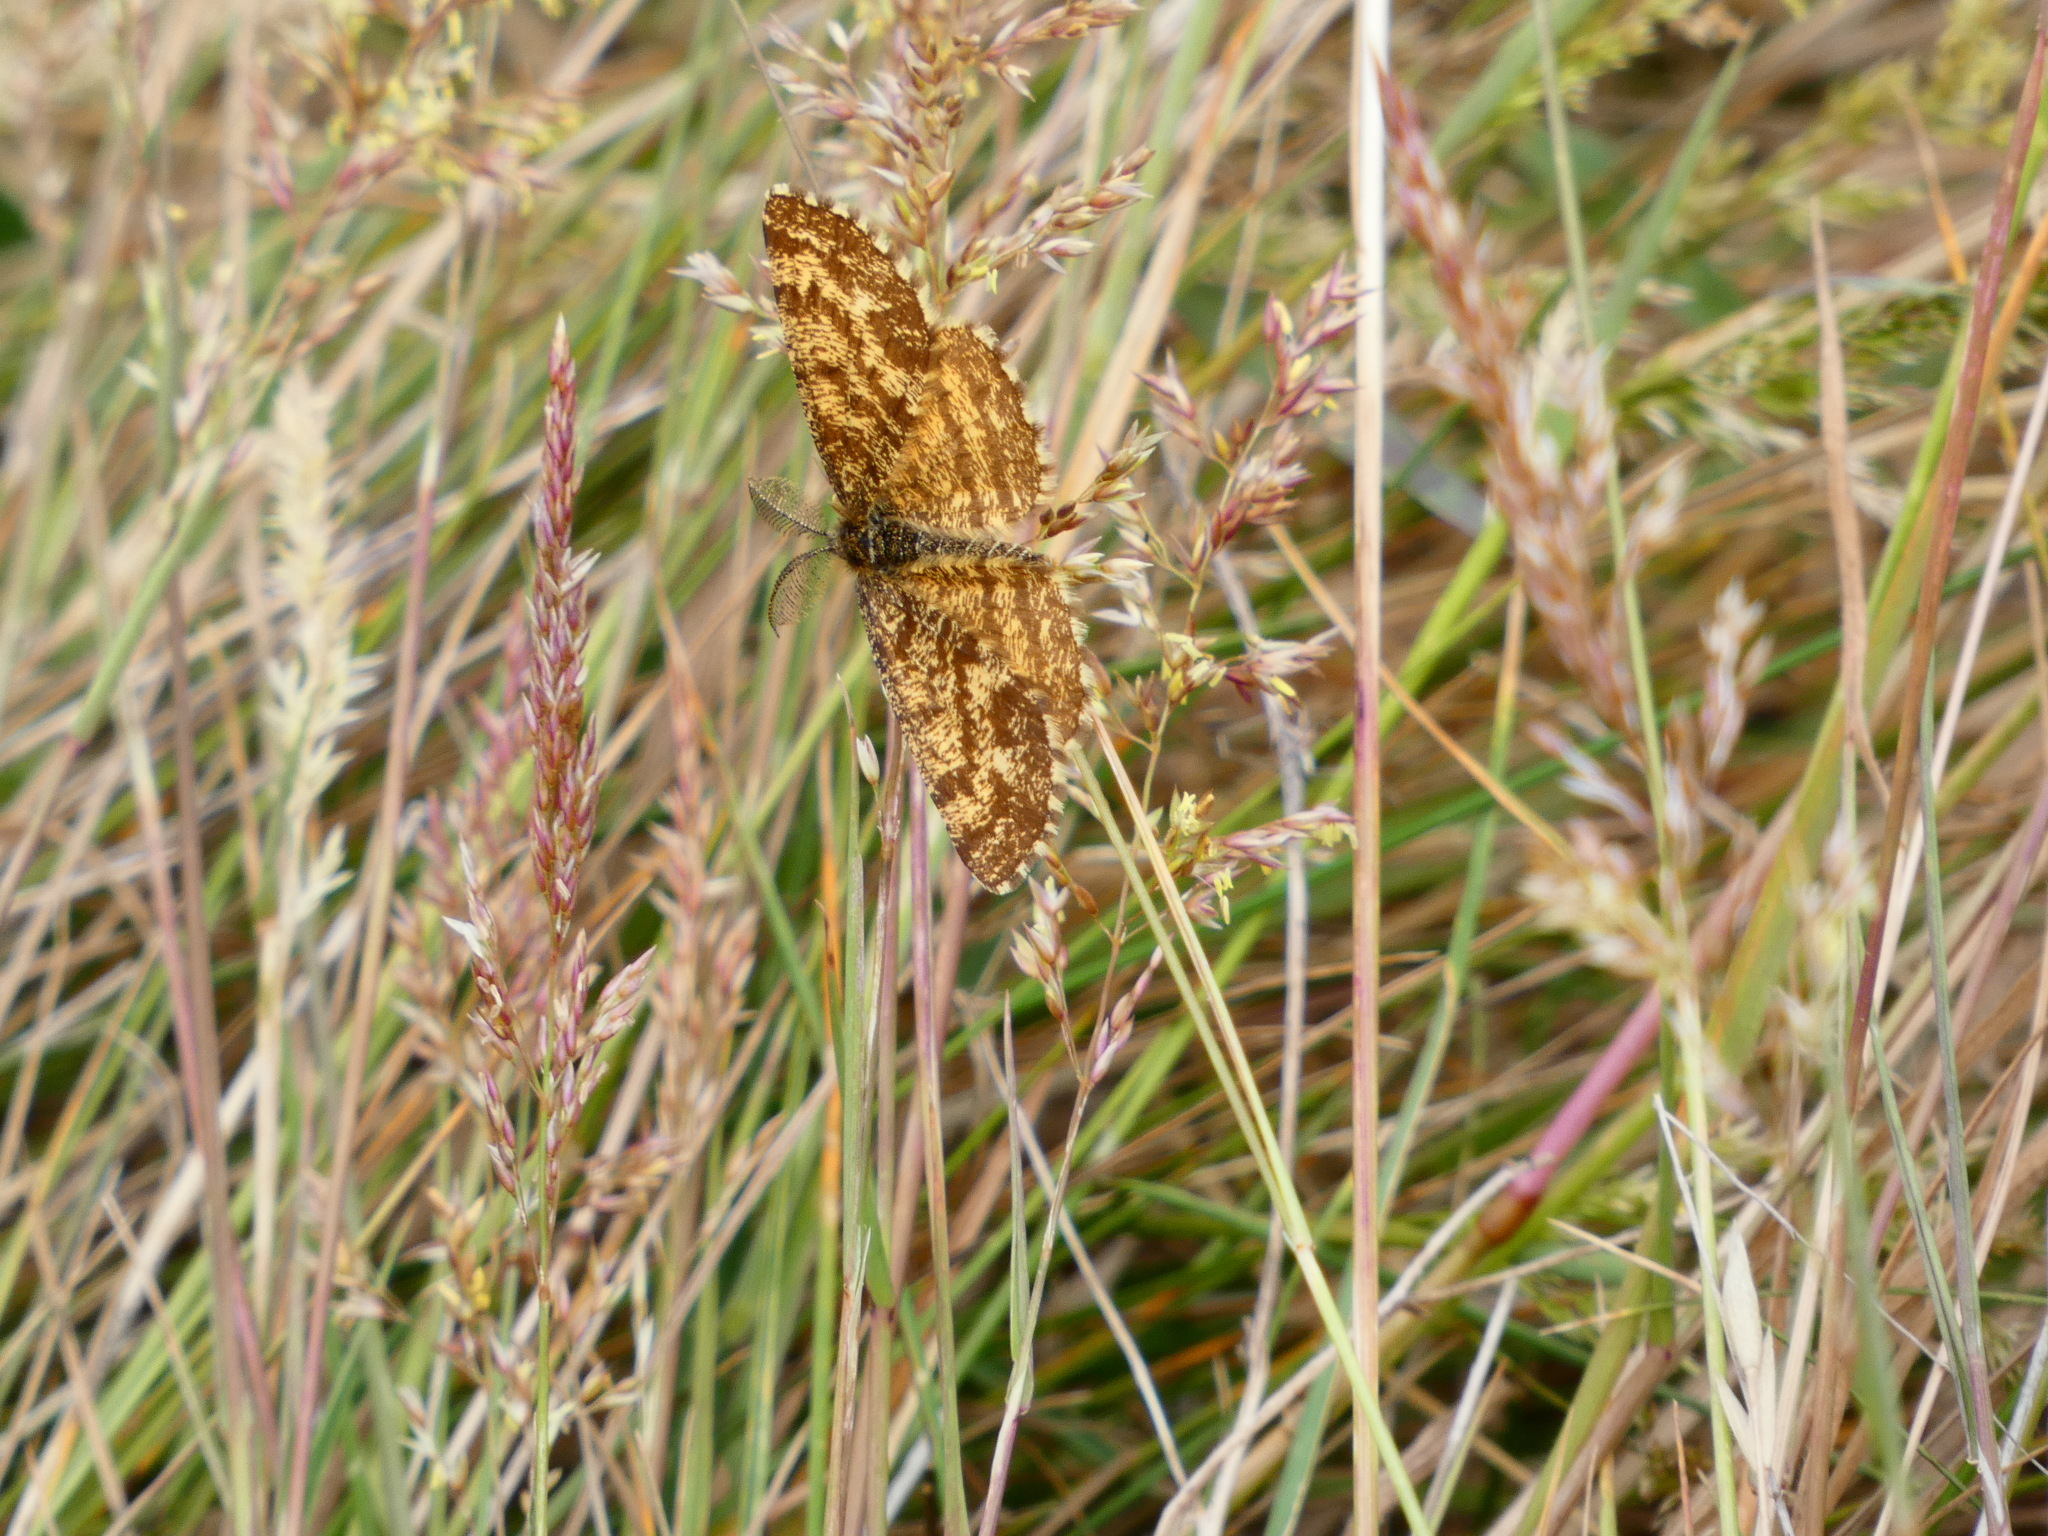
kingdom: Animalia
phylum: Arthropoda
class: Insecta
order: Lepidoptera
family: Geometridae
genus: Ematurga
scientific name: Ematurga atomaria
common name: Common heath
